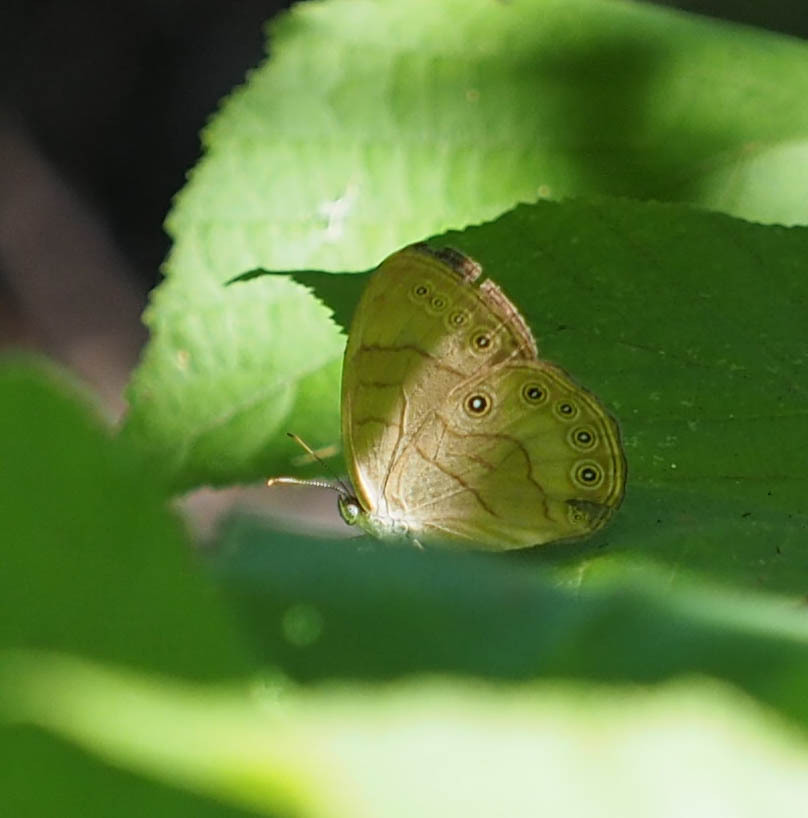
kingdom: Animalia
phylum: Arthropoda
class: Insecta
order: Lepidoptera
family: Nymphalidae
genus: Lethe
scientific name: Lethe eurydice
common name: Eyed brown
